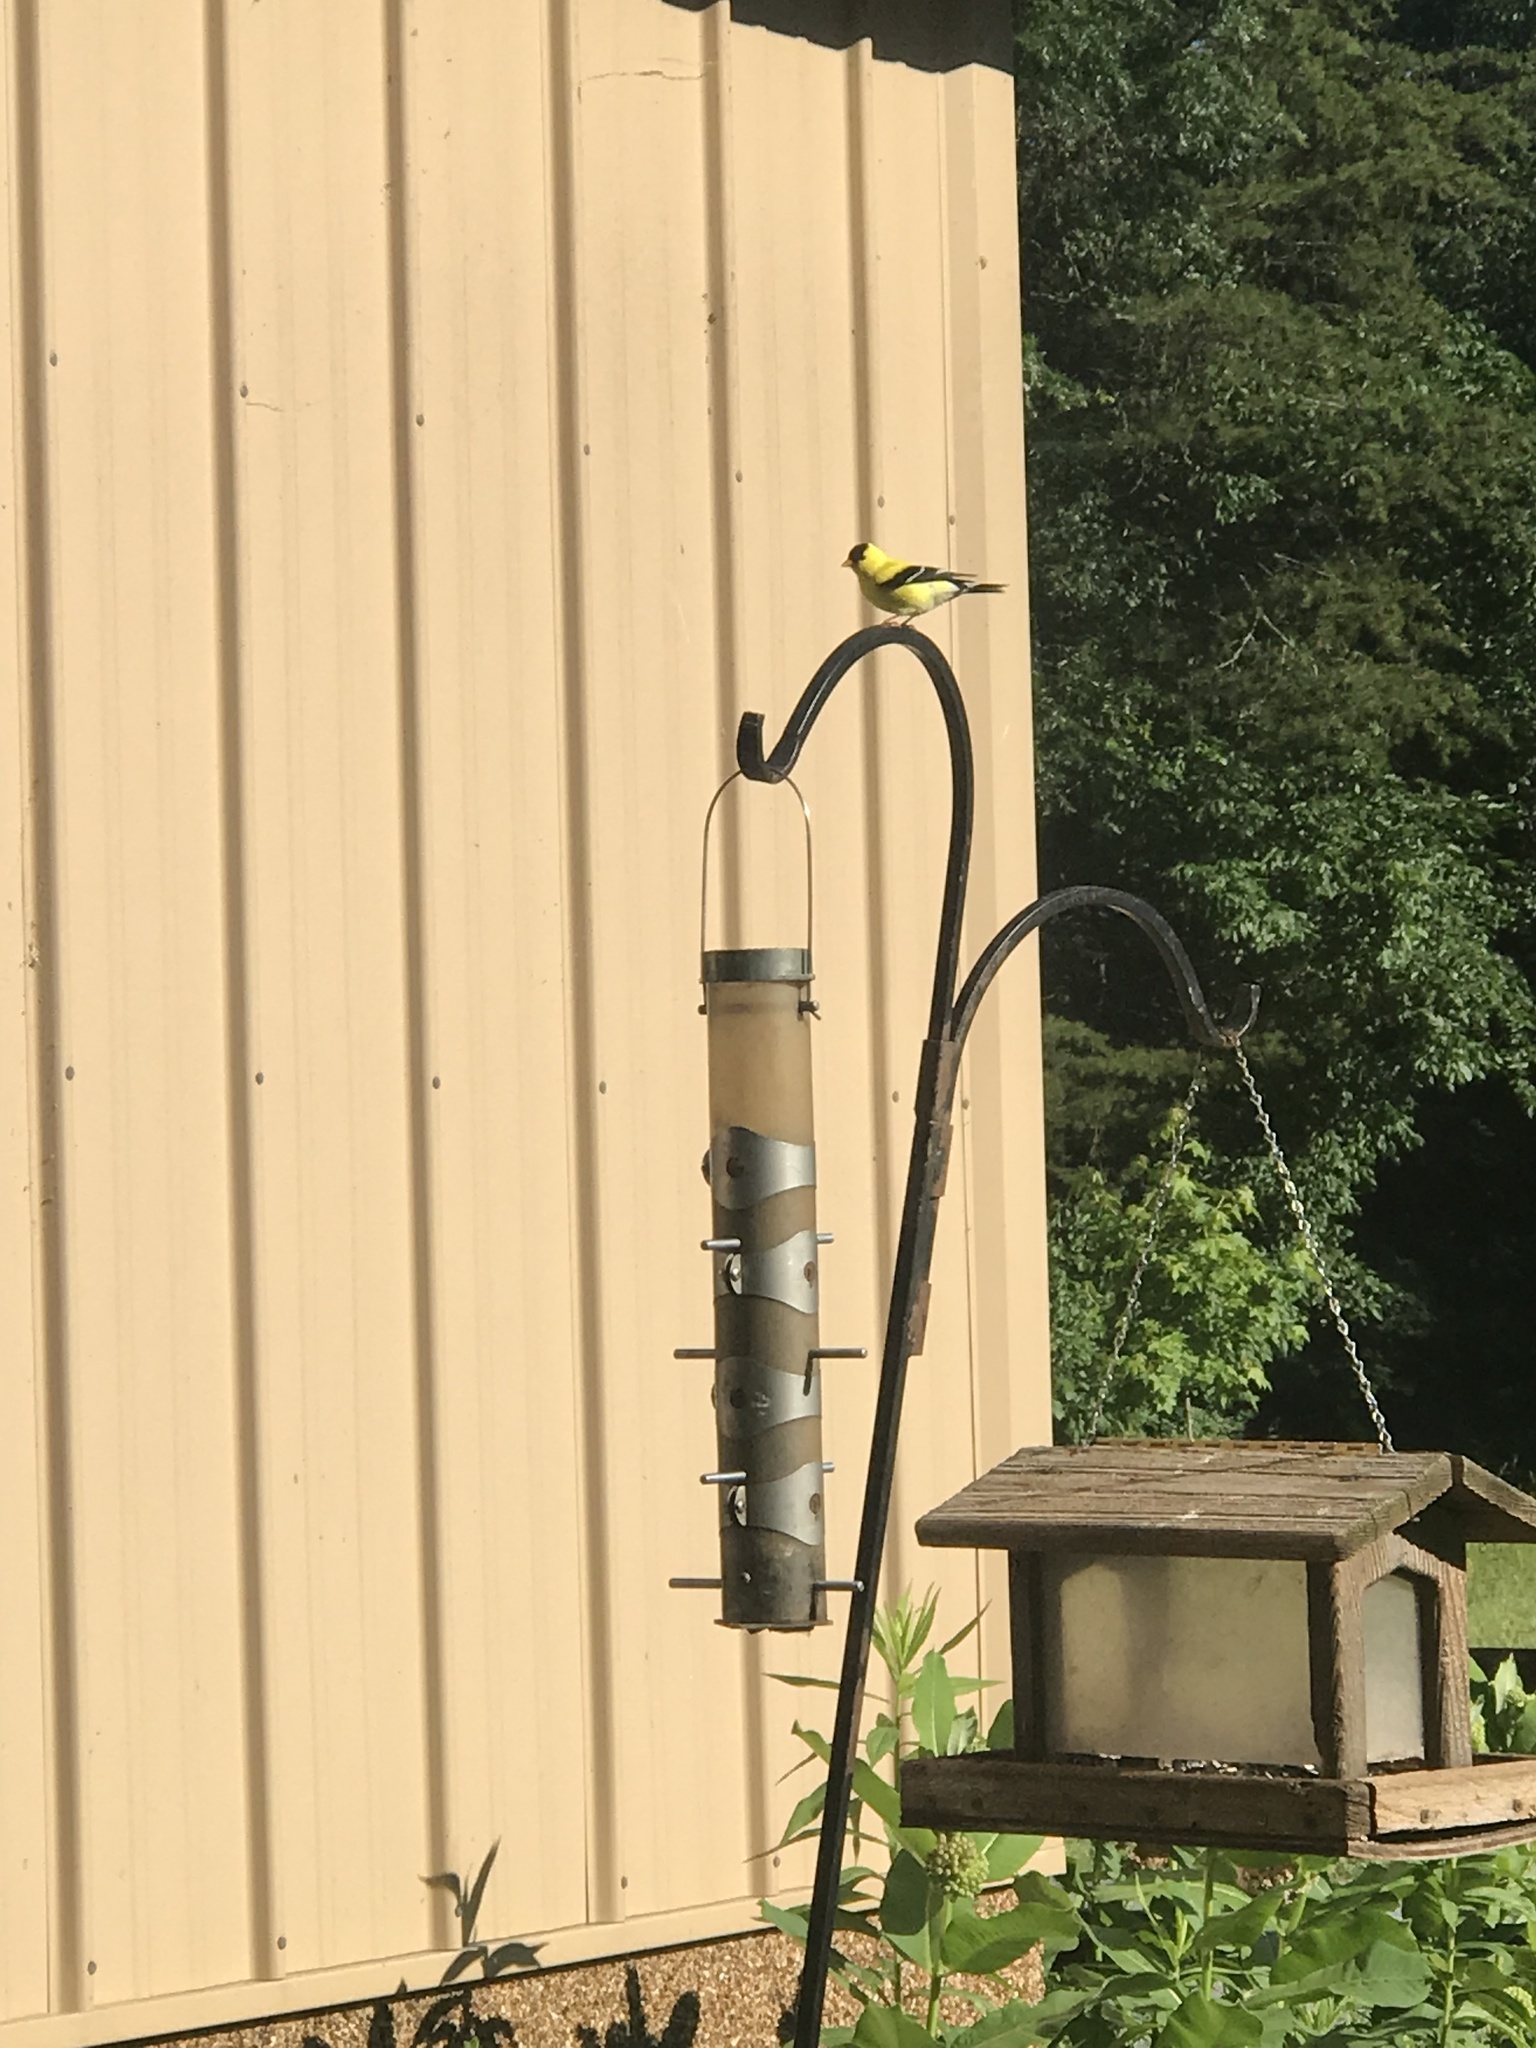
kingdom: Animalia
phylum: Chordata
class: Aves
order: Passeriformes
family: Fringillidae
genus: Spinus
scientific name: Spinus tristis
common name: American goldfinch
